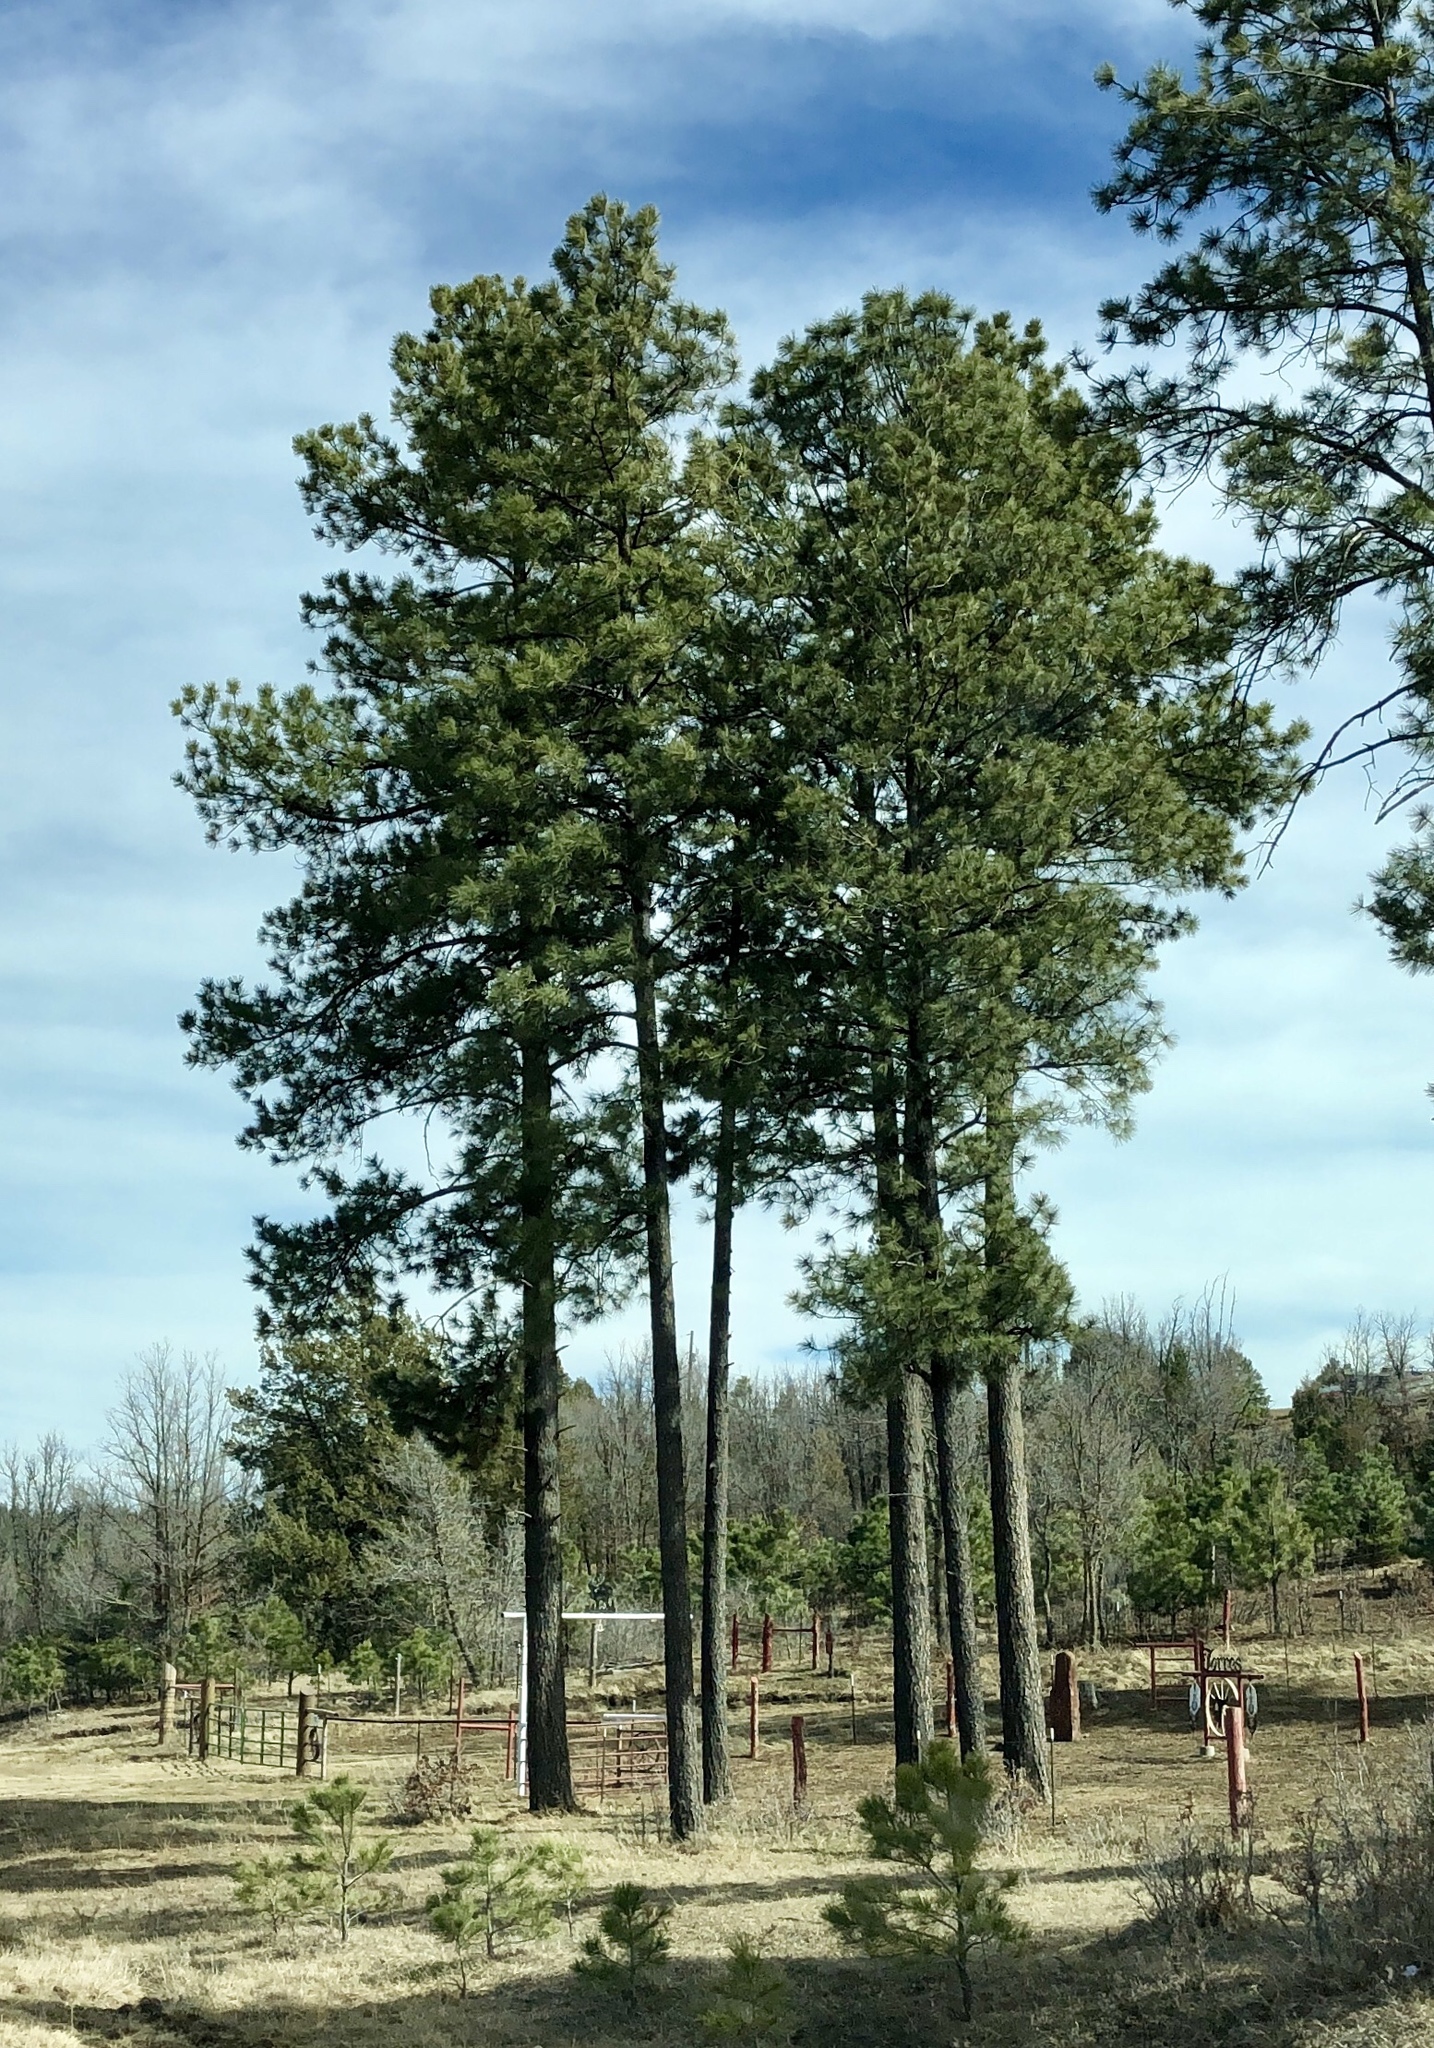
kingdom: Plantae
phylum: Tracheophyta
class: Pinopsida
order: Pinales
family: Pinaceae
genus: Pinus
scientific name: Pinus ponderosa
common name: Western yellow-pine
